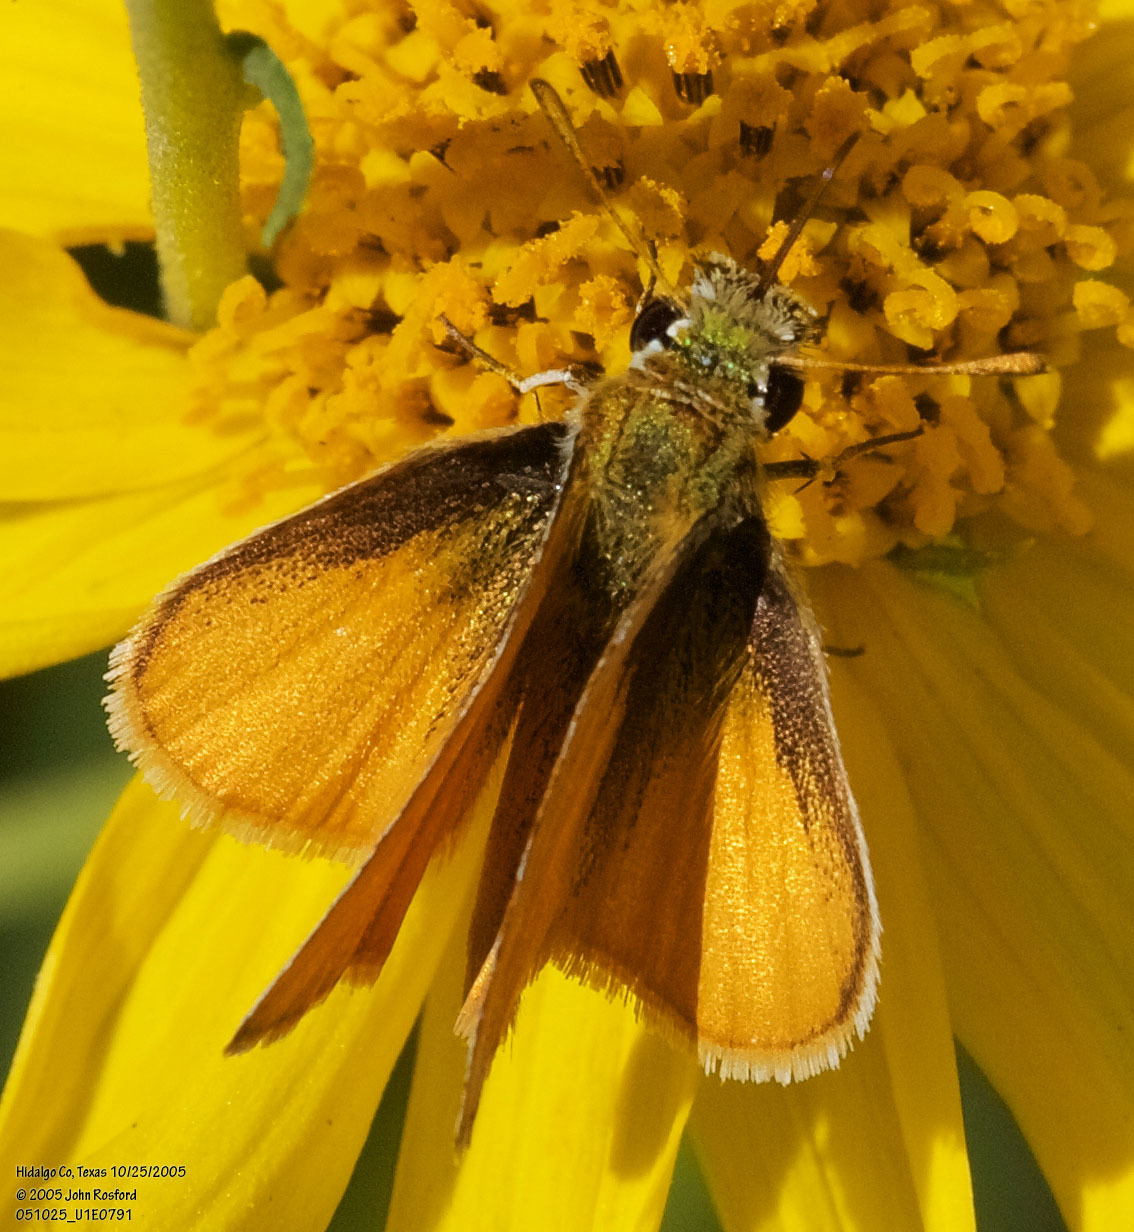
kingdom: Animalia
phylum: Arthropoda
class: Insecta
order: Lepidoptera
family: Hesperiidae
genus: Copaeodes
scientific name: Copaeodes minima
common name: Southern skipperling
